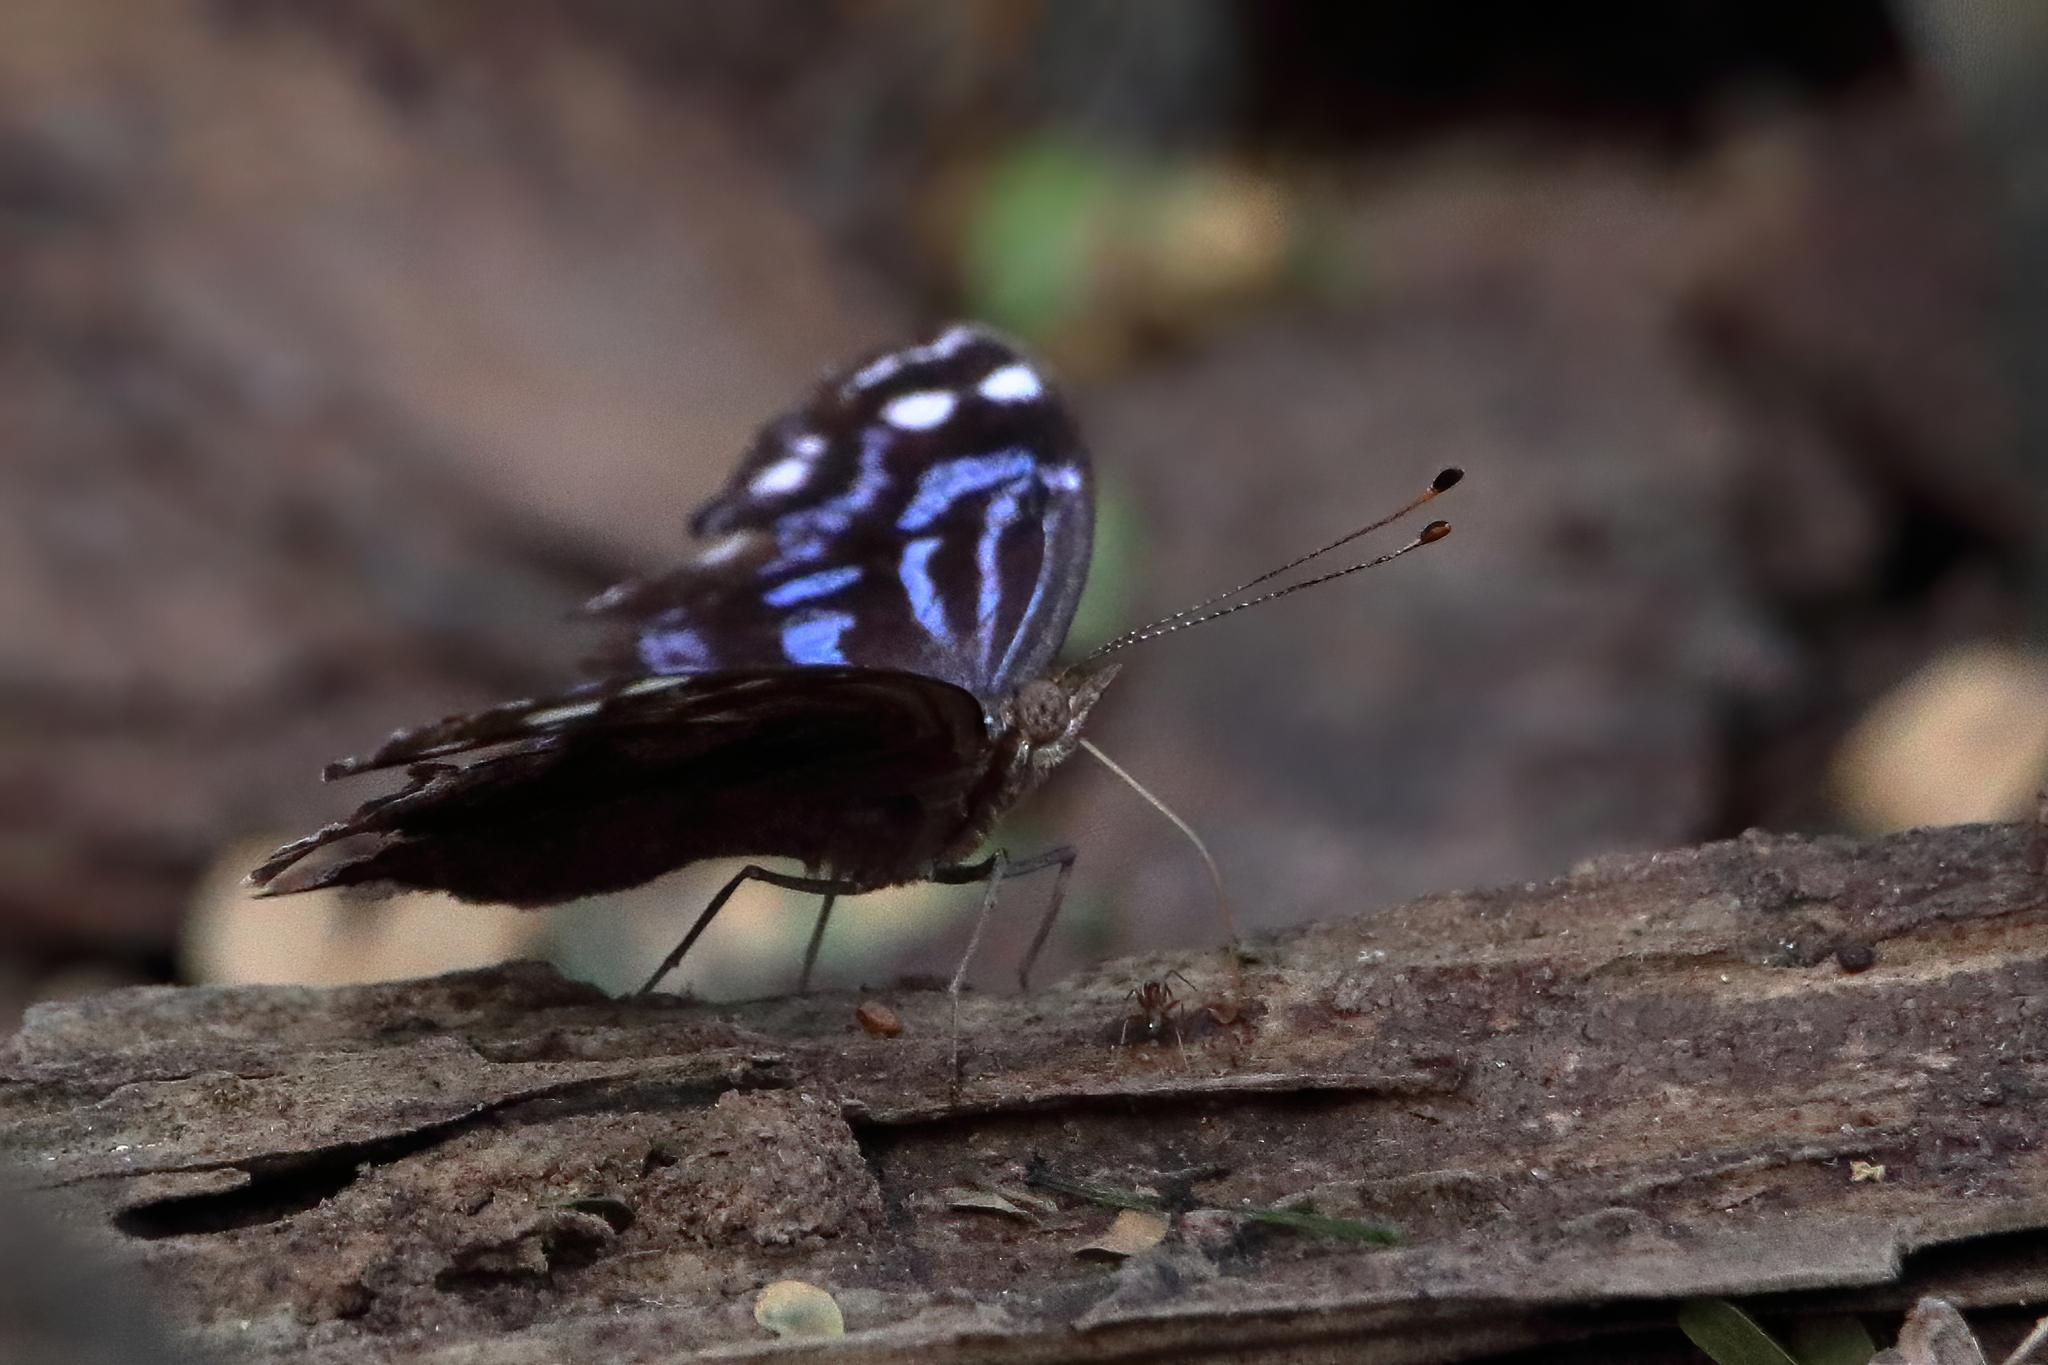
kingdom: Animalia
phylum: Arthropoda
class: Insecta
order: Lepidoptera
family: Nymphalidae
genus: Myscelia
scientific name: Myscelia ethusa
